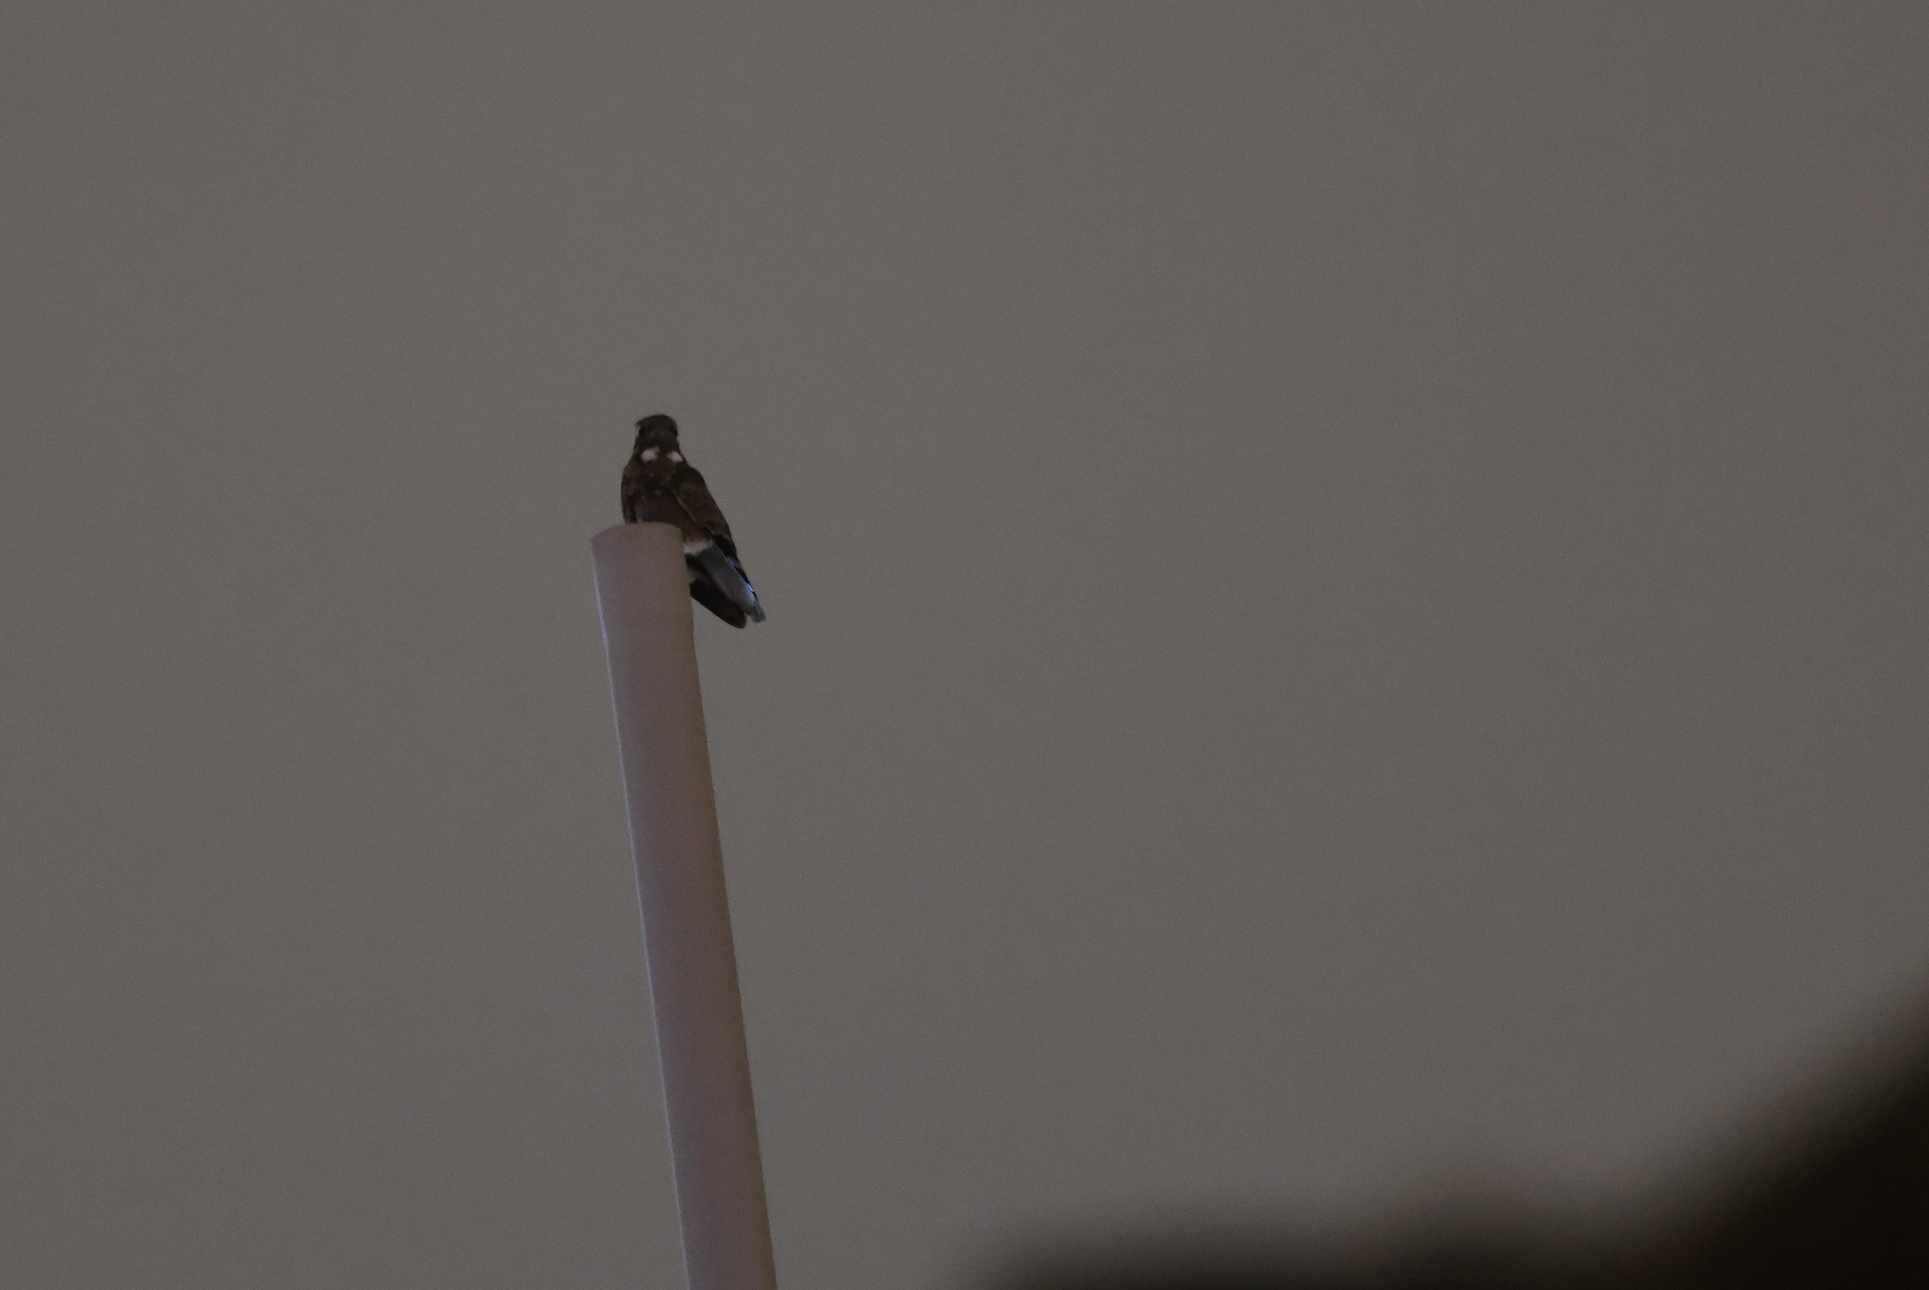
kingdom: Animalia
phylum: Chordata
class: Aves
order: Caprimulgiformes
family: Caprimulgidae
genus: Caprimulgus
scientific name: Caprimulgus affinis
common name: Savanna nightjar
